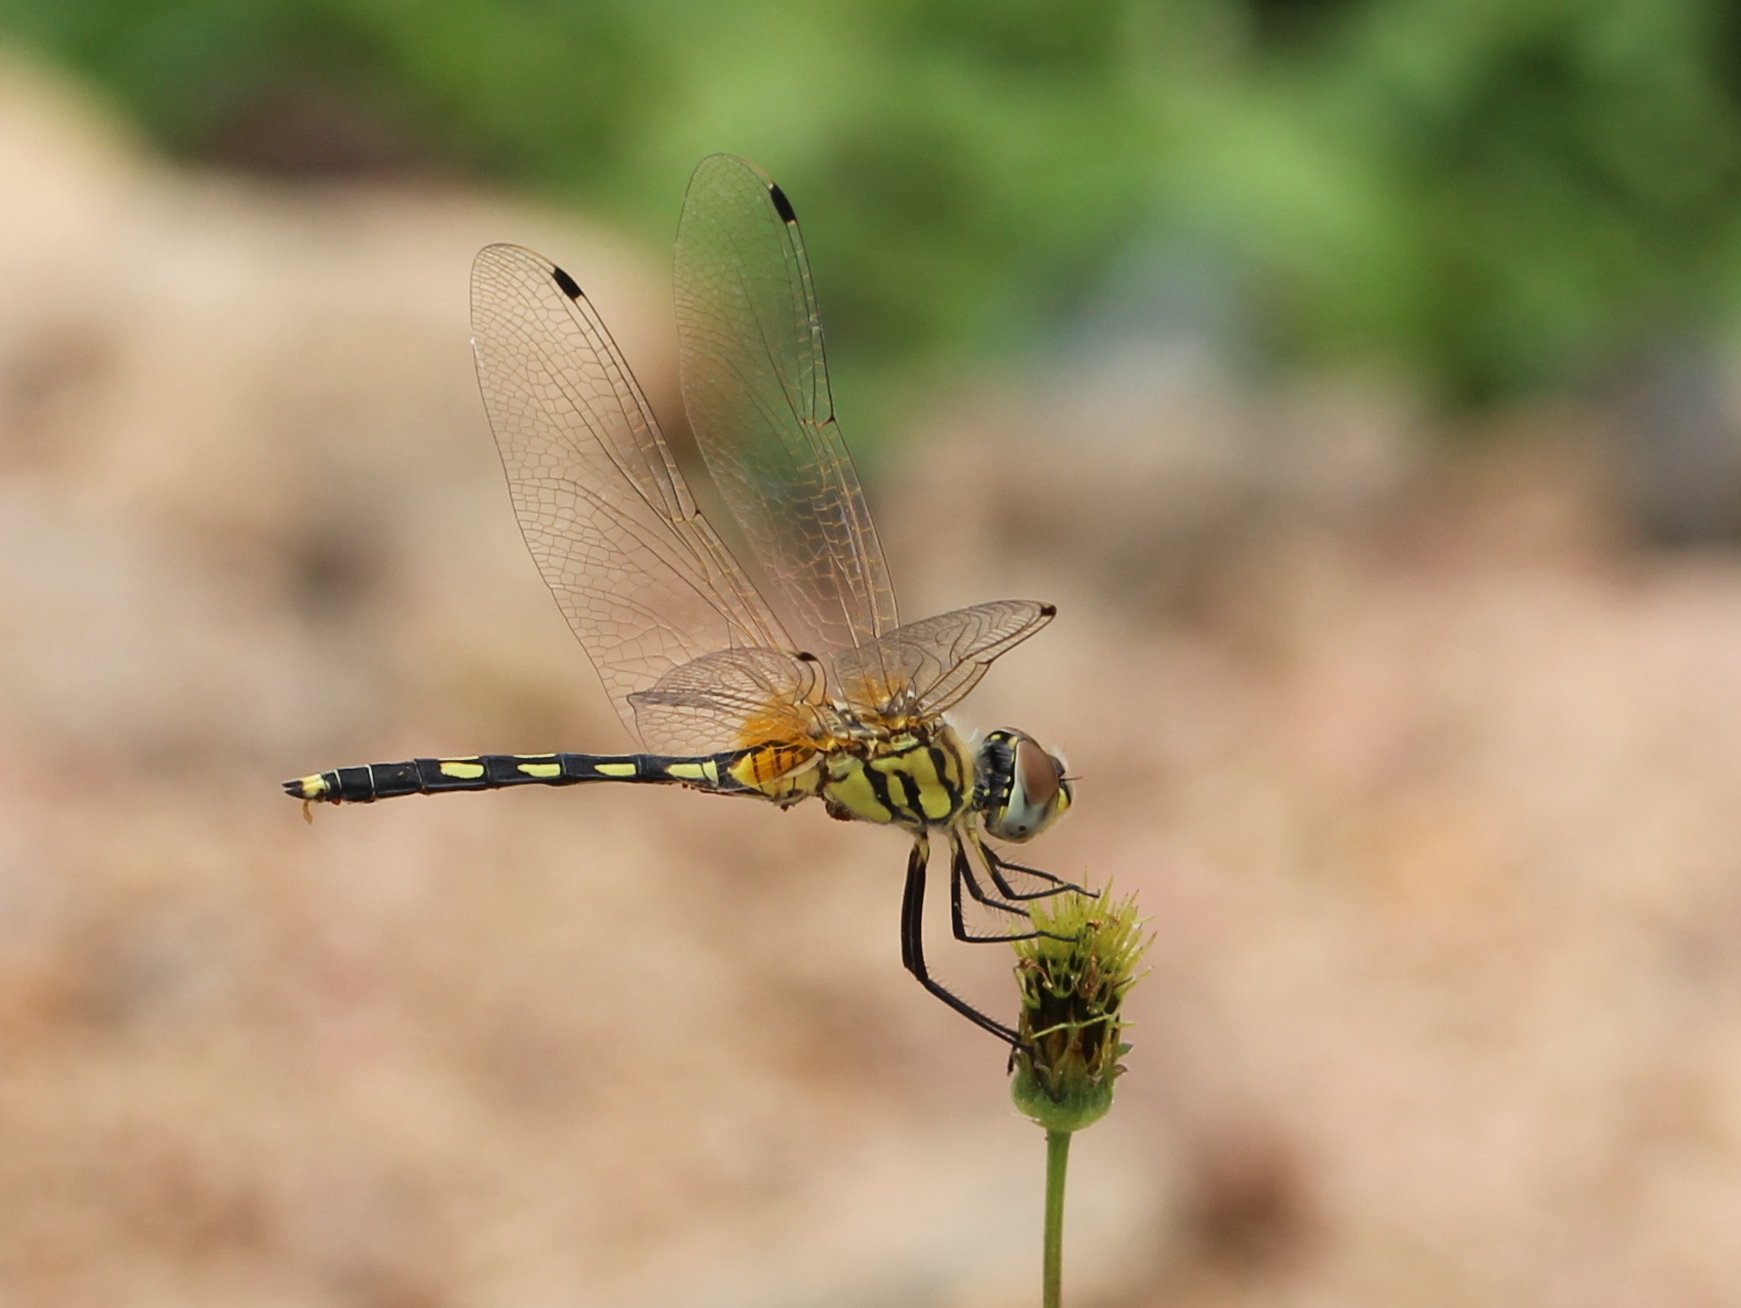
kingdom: Animalia
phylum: Arthropoda
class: Insecta
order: Odonata
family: Libellulidae
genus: Trithemis
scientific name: Trithemis pallidinervis
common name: Dancing dropwing
